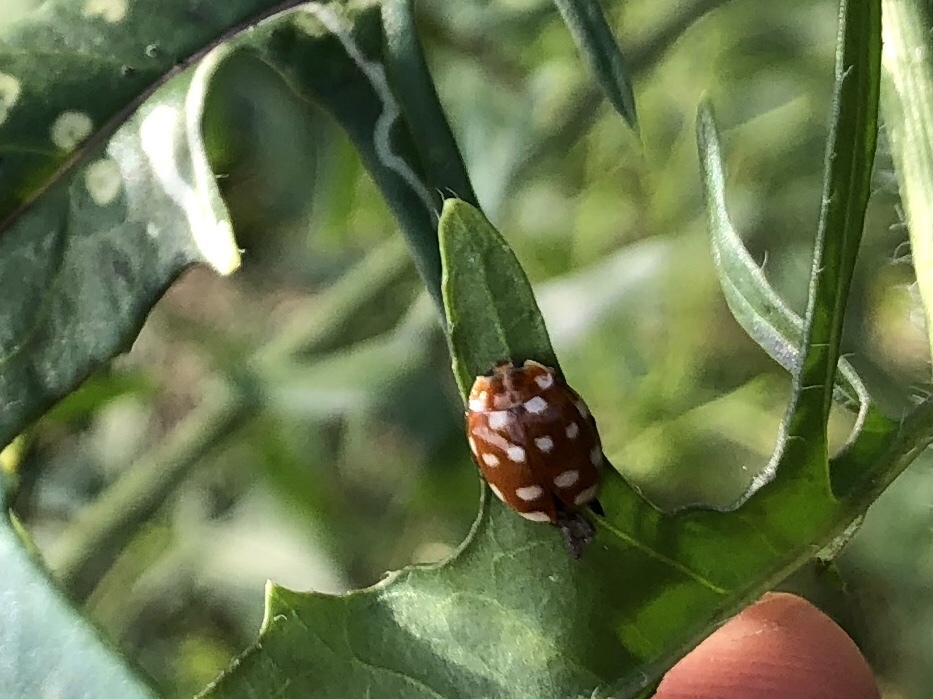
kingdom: Animalia
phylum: Arthropoda
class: Insecta
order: Coleoptera
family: Coccinellidae
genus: Calvia
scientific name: Calvia quatuordecimguttata
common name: Cream-spot ladybird
